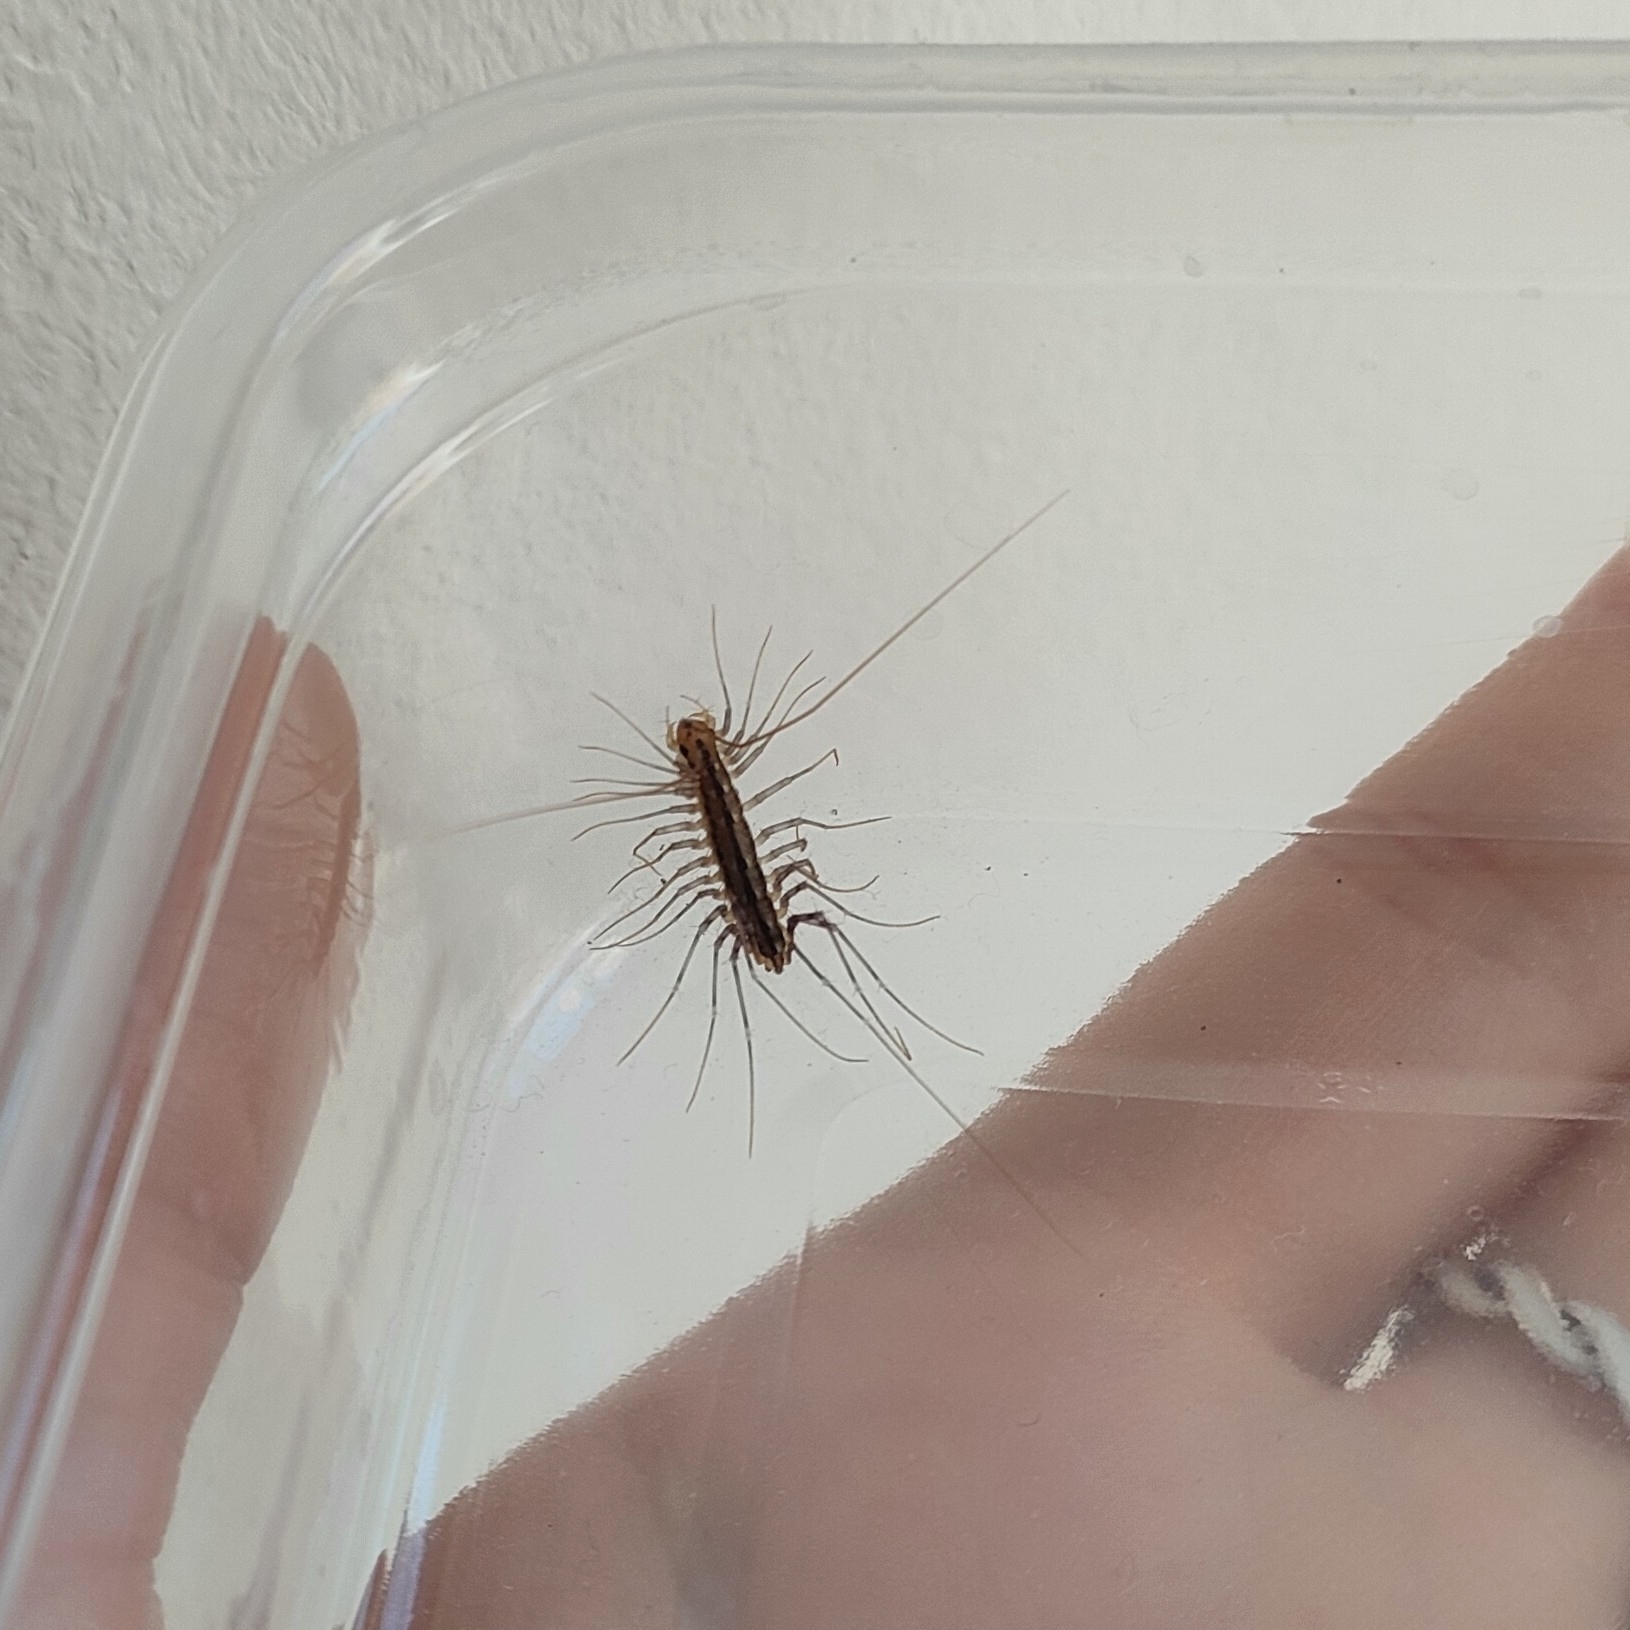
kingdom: Animalia
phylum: Arthropoda
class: Chilopoda
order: Scutigeromorpha
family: Scutigeridae
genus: Scutigera
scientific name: Scutigera coleoptrata
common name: House centipede
